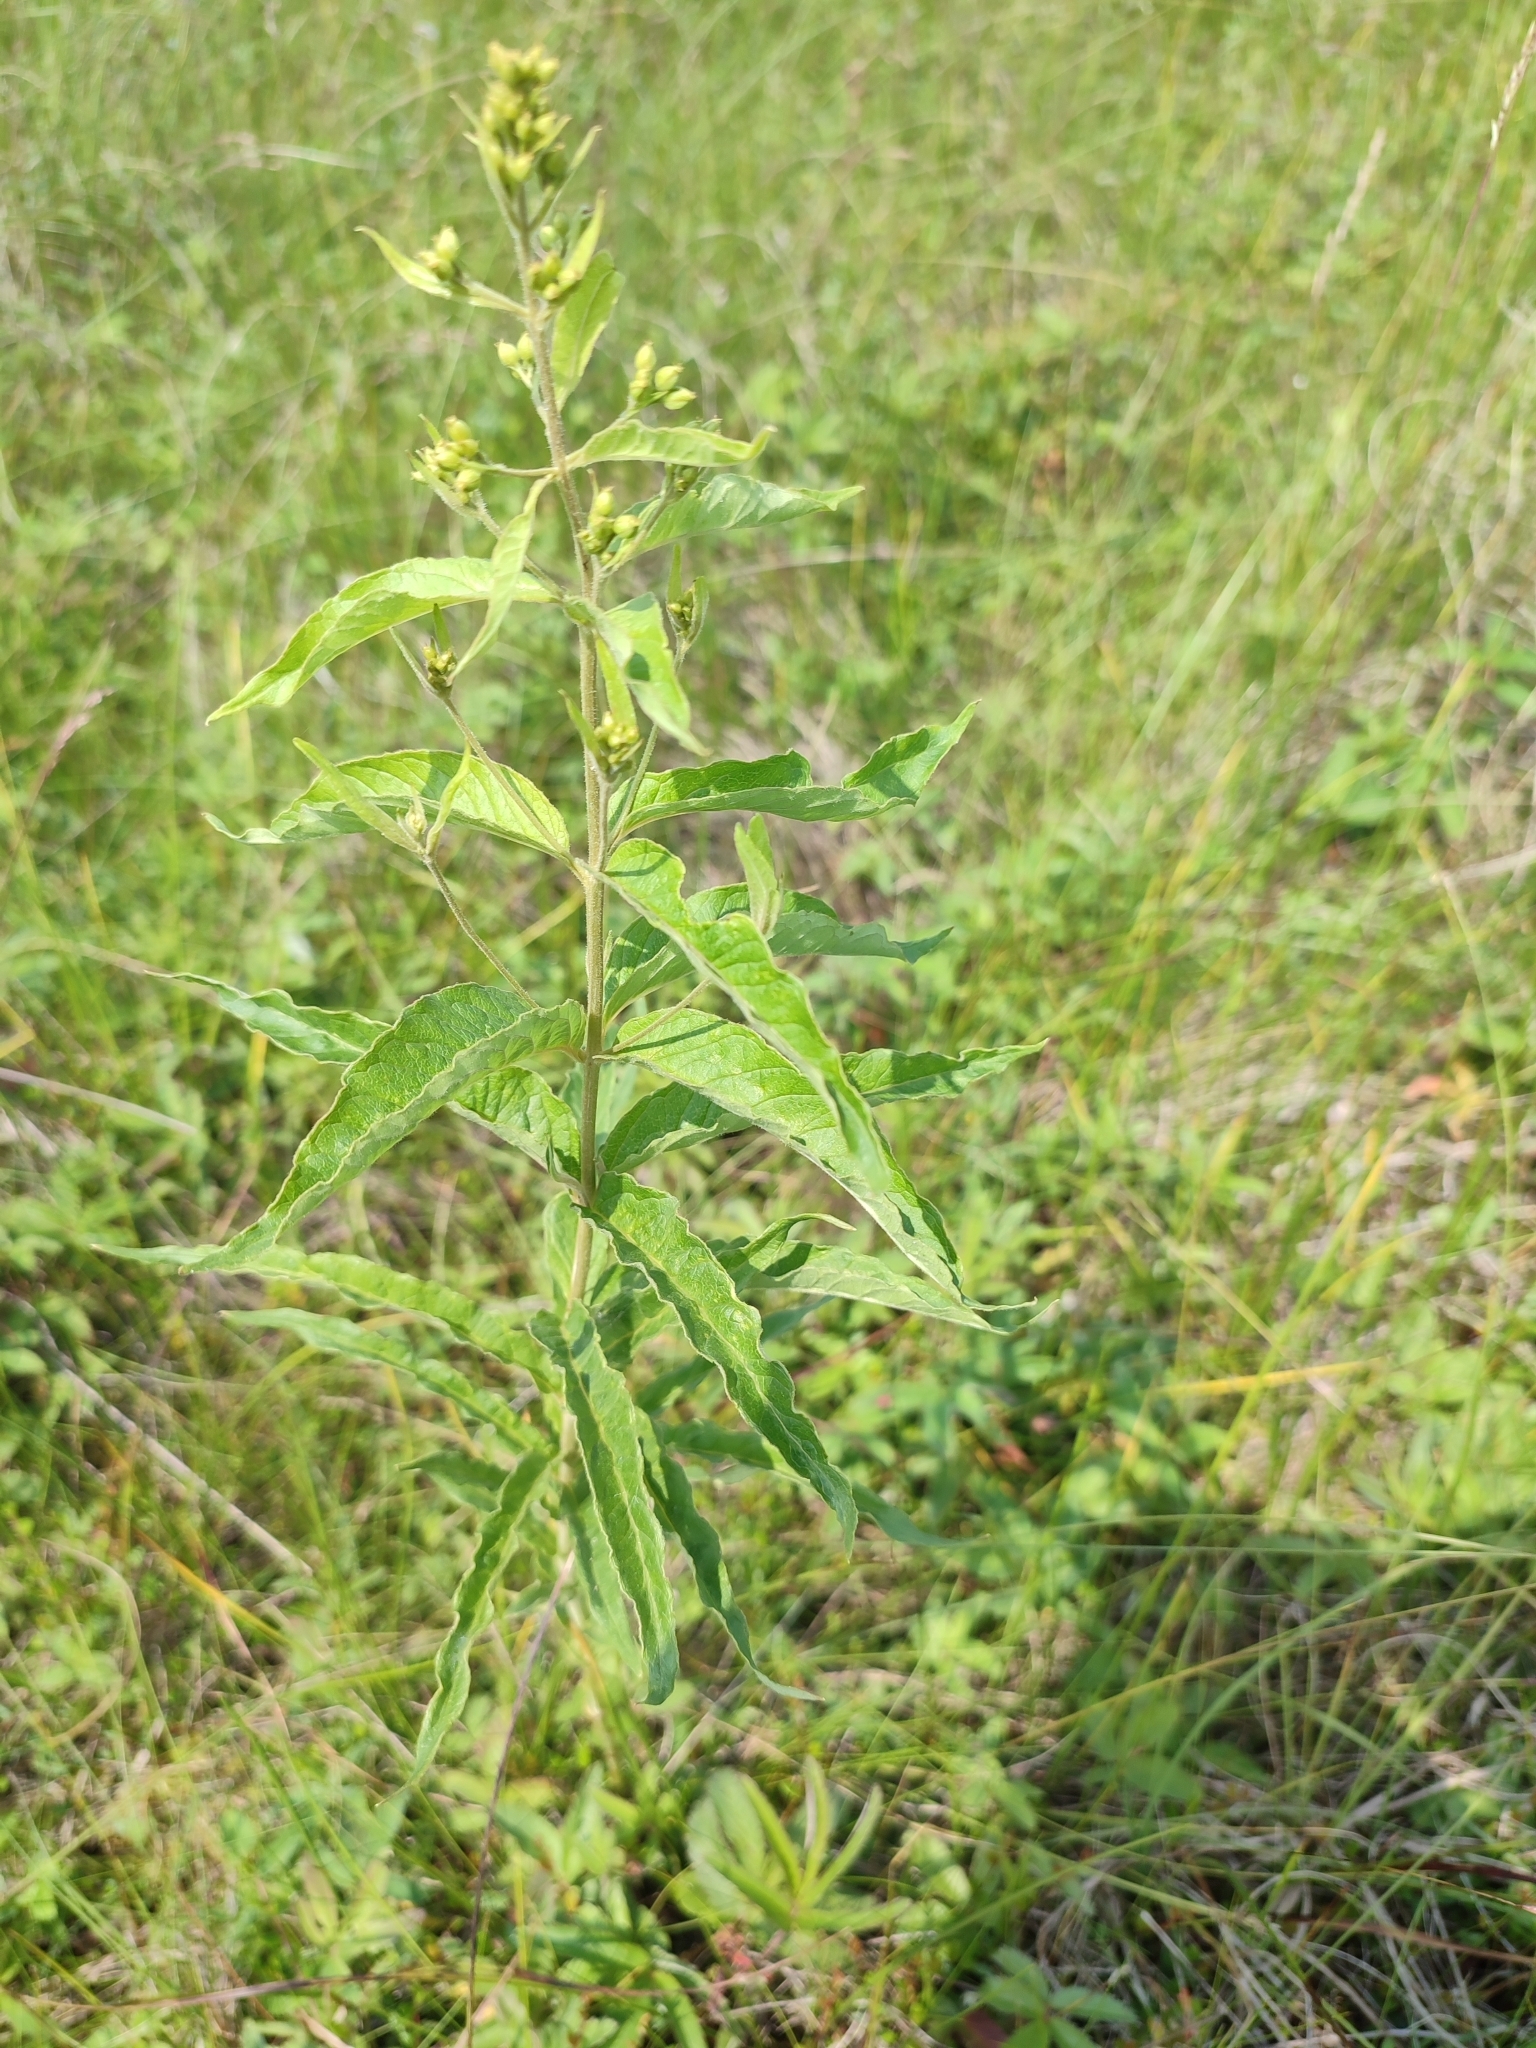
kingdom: Plantae
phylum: Tracheophyta
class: Magnoliopsida
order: Ericales
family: Primulaceae
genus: Lysimachia
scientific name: Lysimachia vulgaris
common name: Yellow loosestrife
